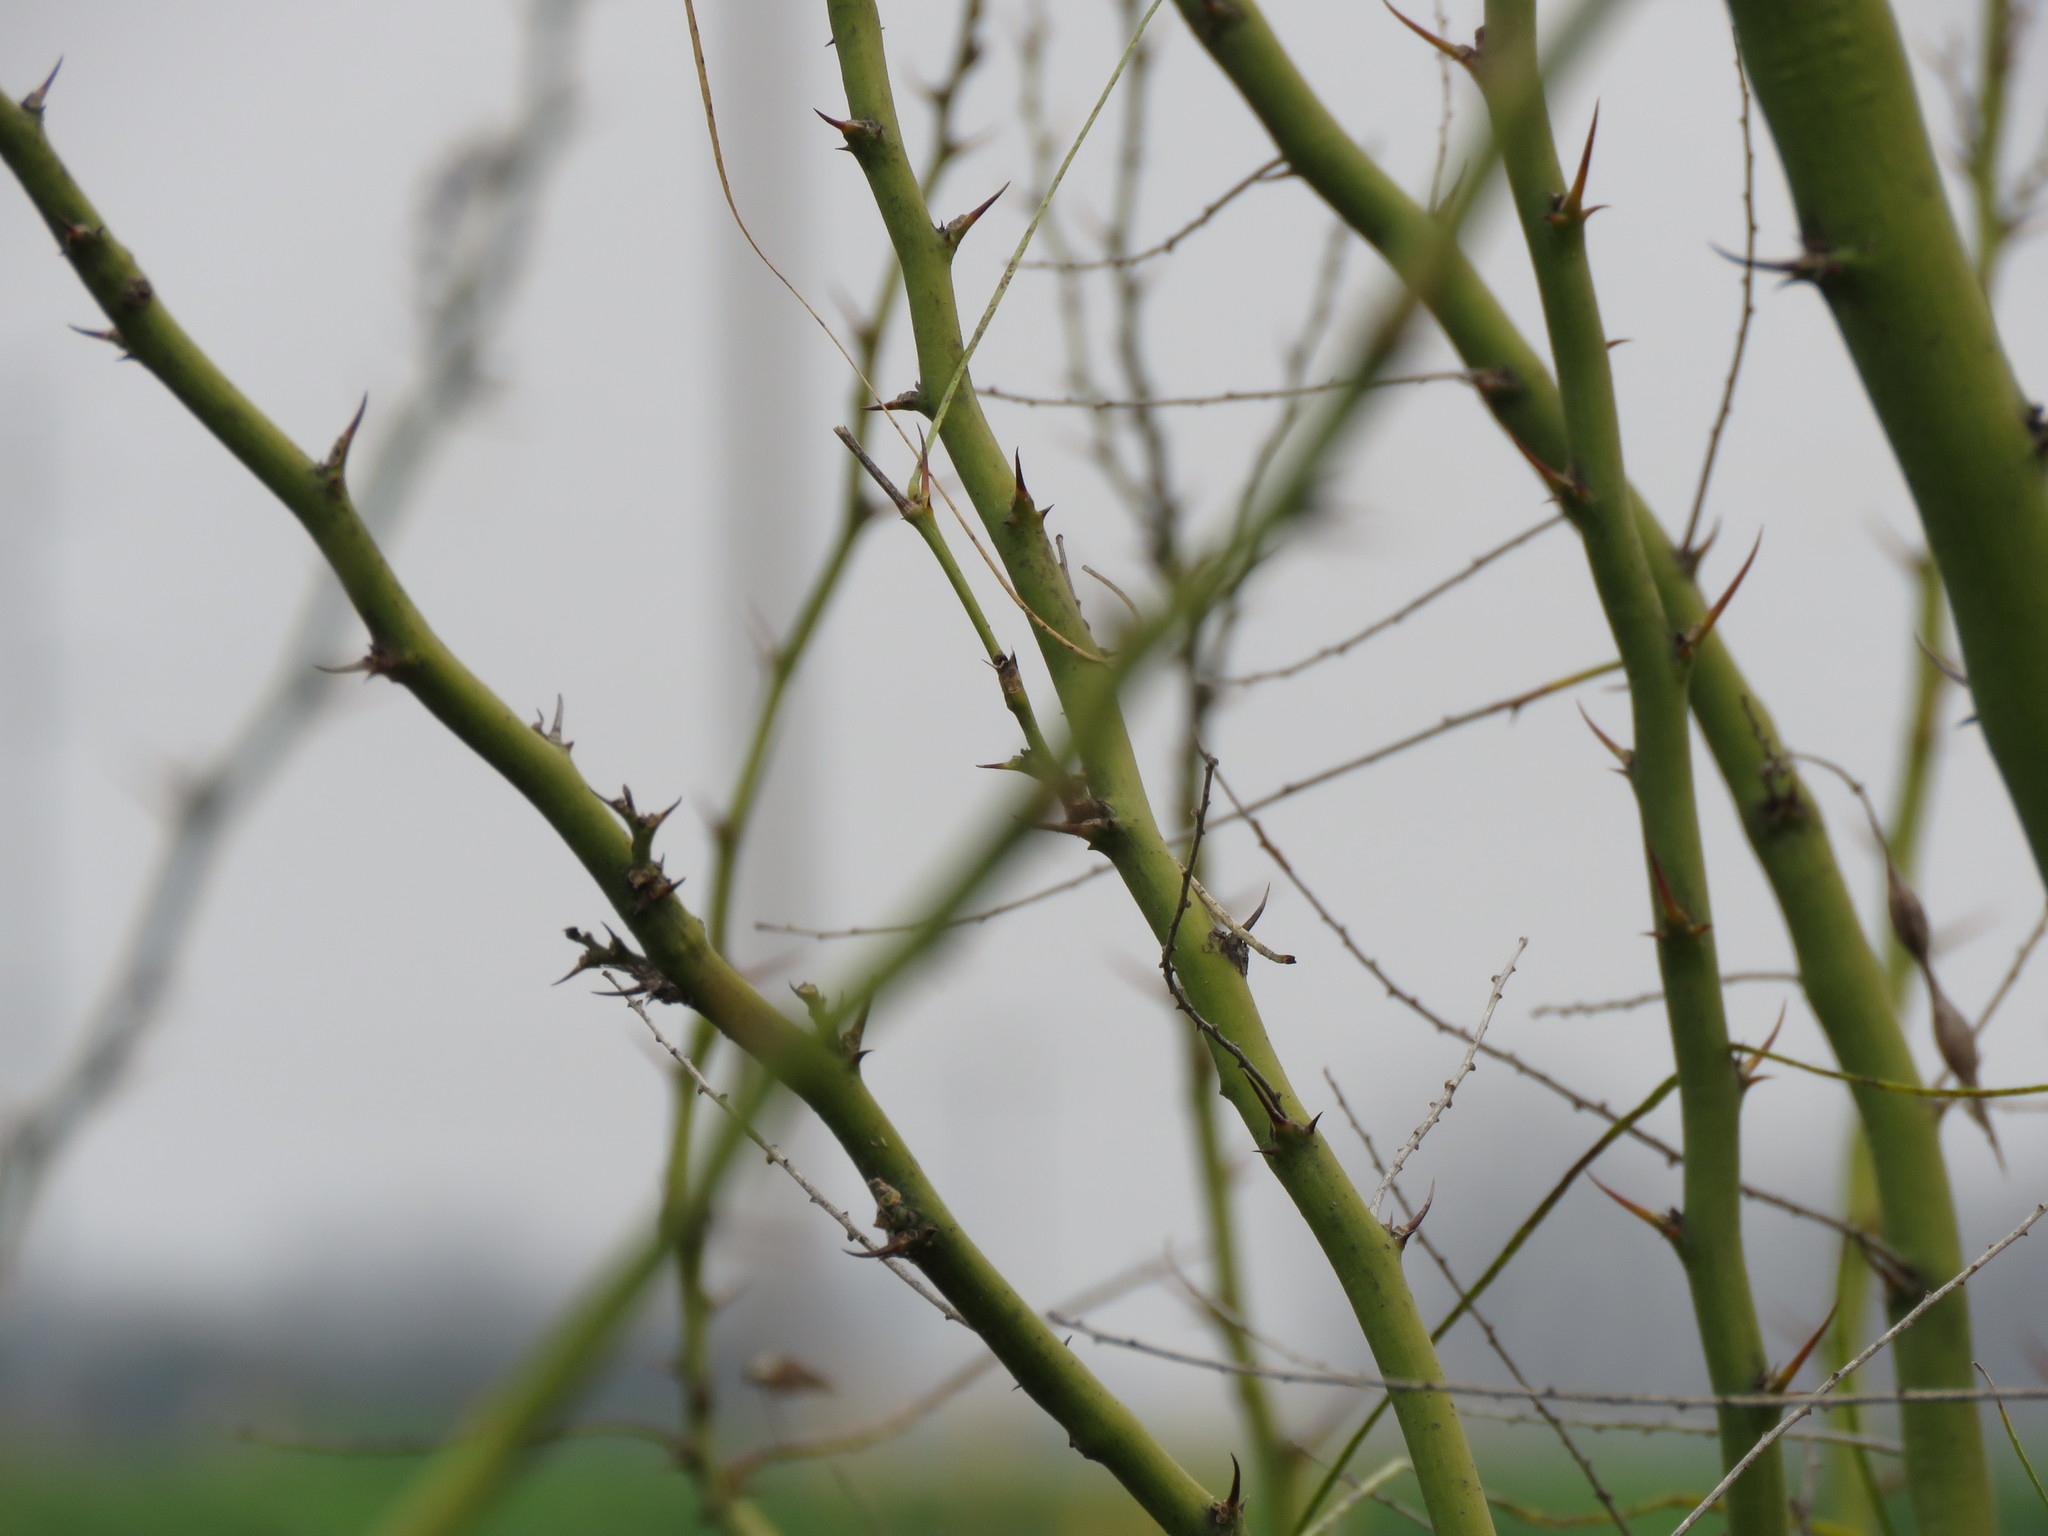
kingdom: Plantae
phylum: Tracheophyta
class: Magnoliopsida
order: Fabales
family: Fabaceae
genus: Parkinsonia
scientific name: Parkinsonia aculeata
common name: Jerusalem thorn
